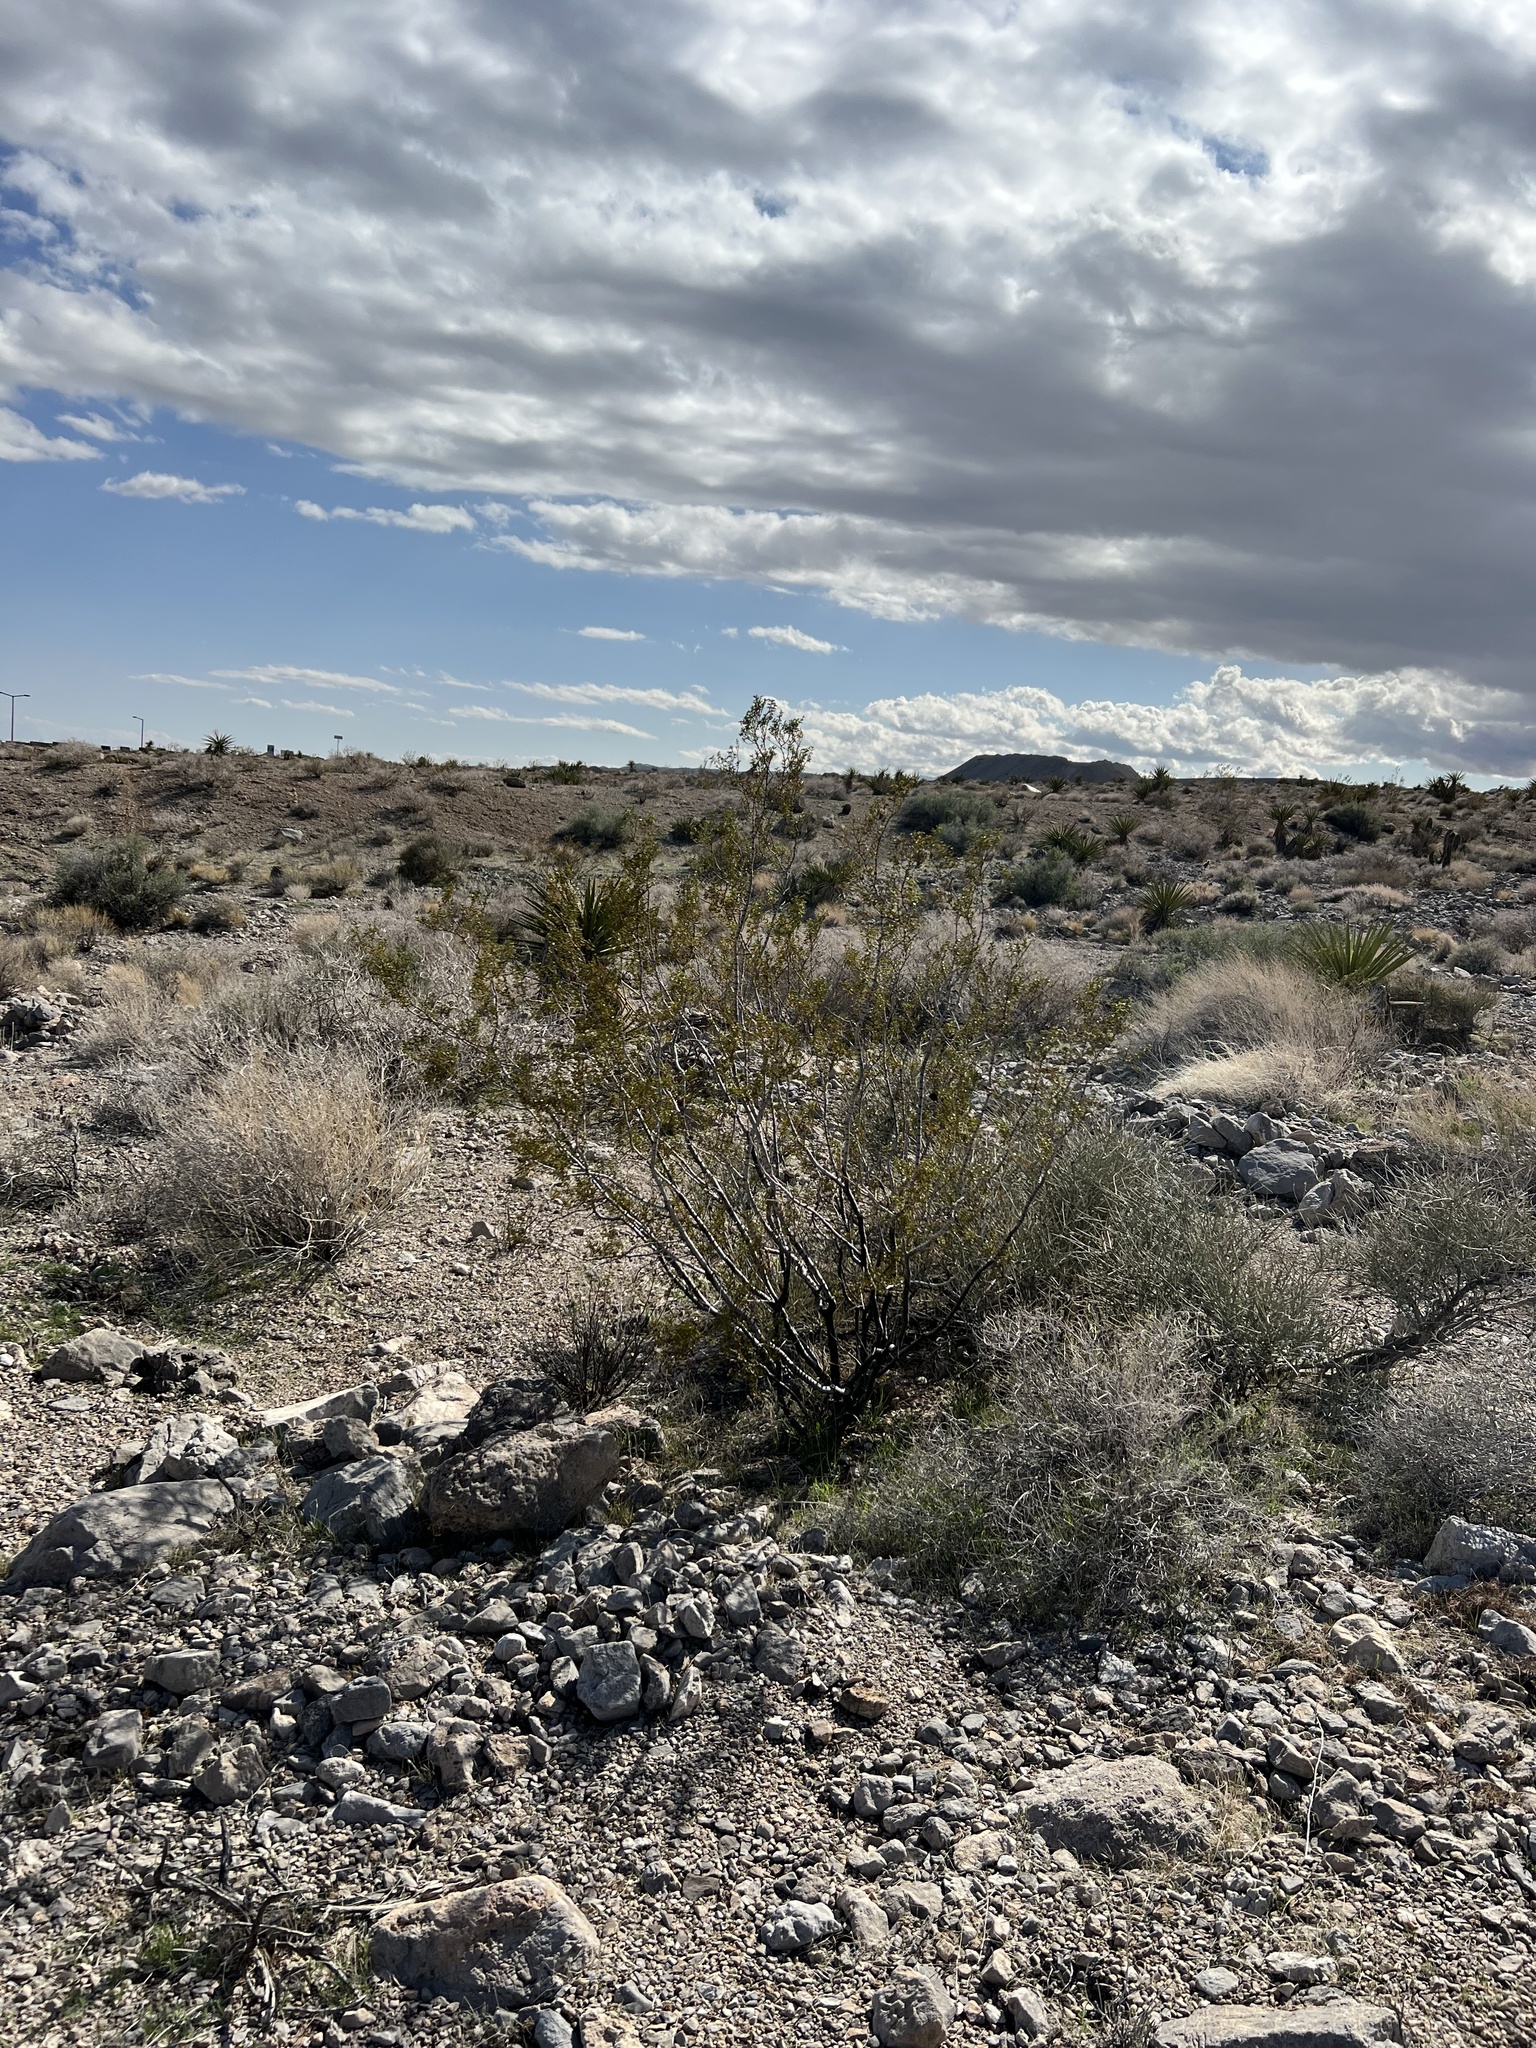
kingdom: Plantae
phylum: Tracheophyta
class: Magnoliopsida
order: Zygophyllales
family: Zygophyllaceae
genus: Larrea
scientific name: Larrea tridentata
